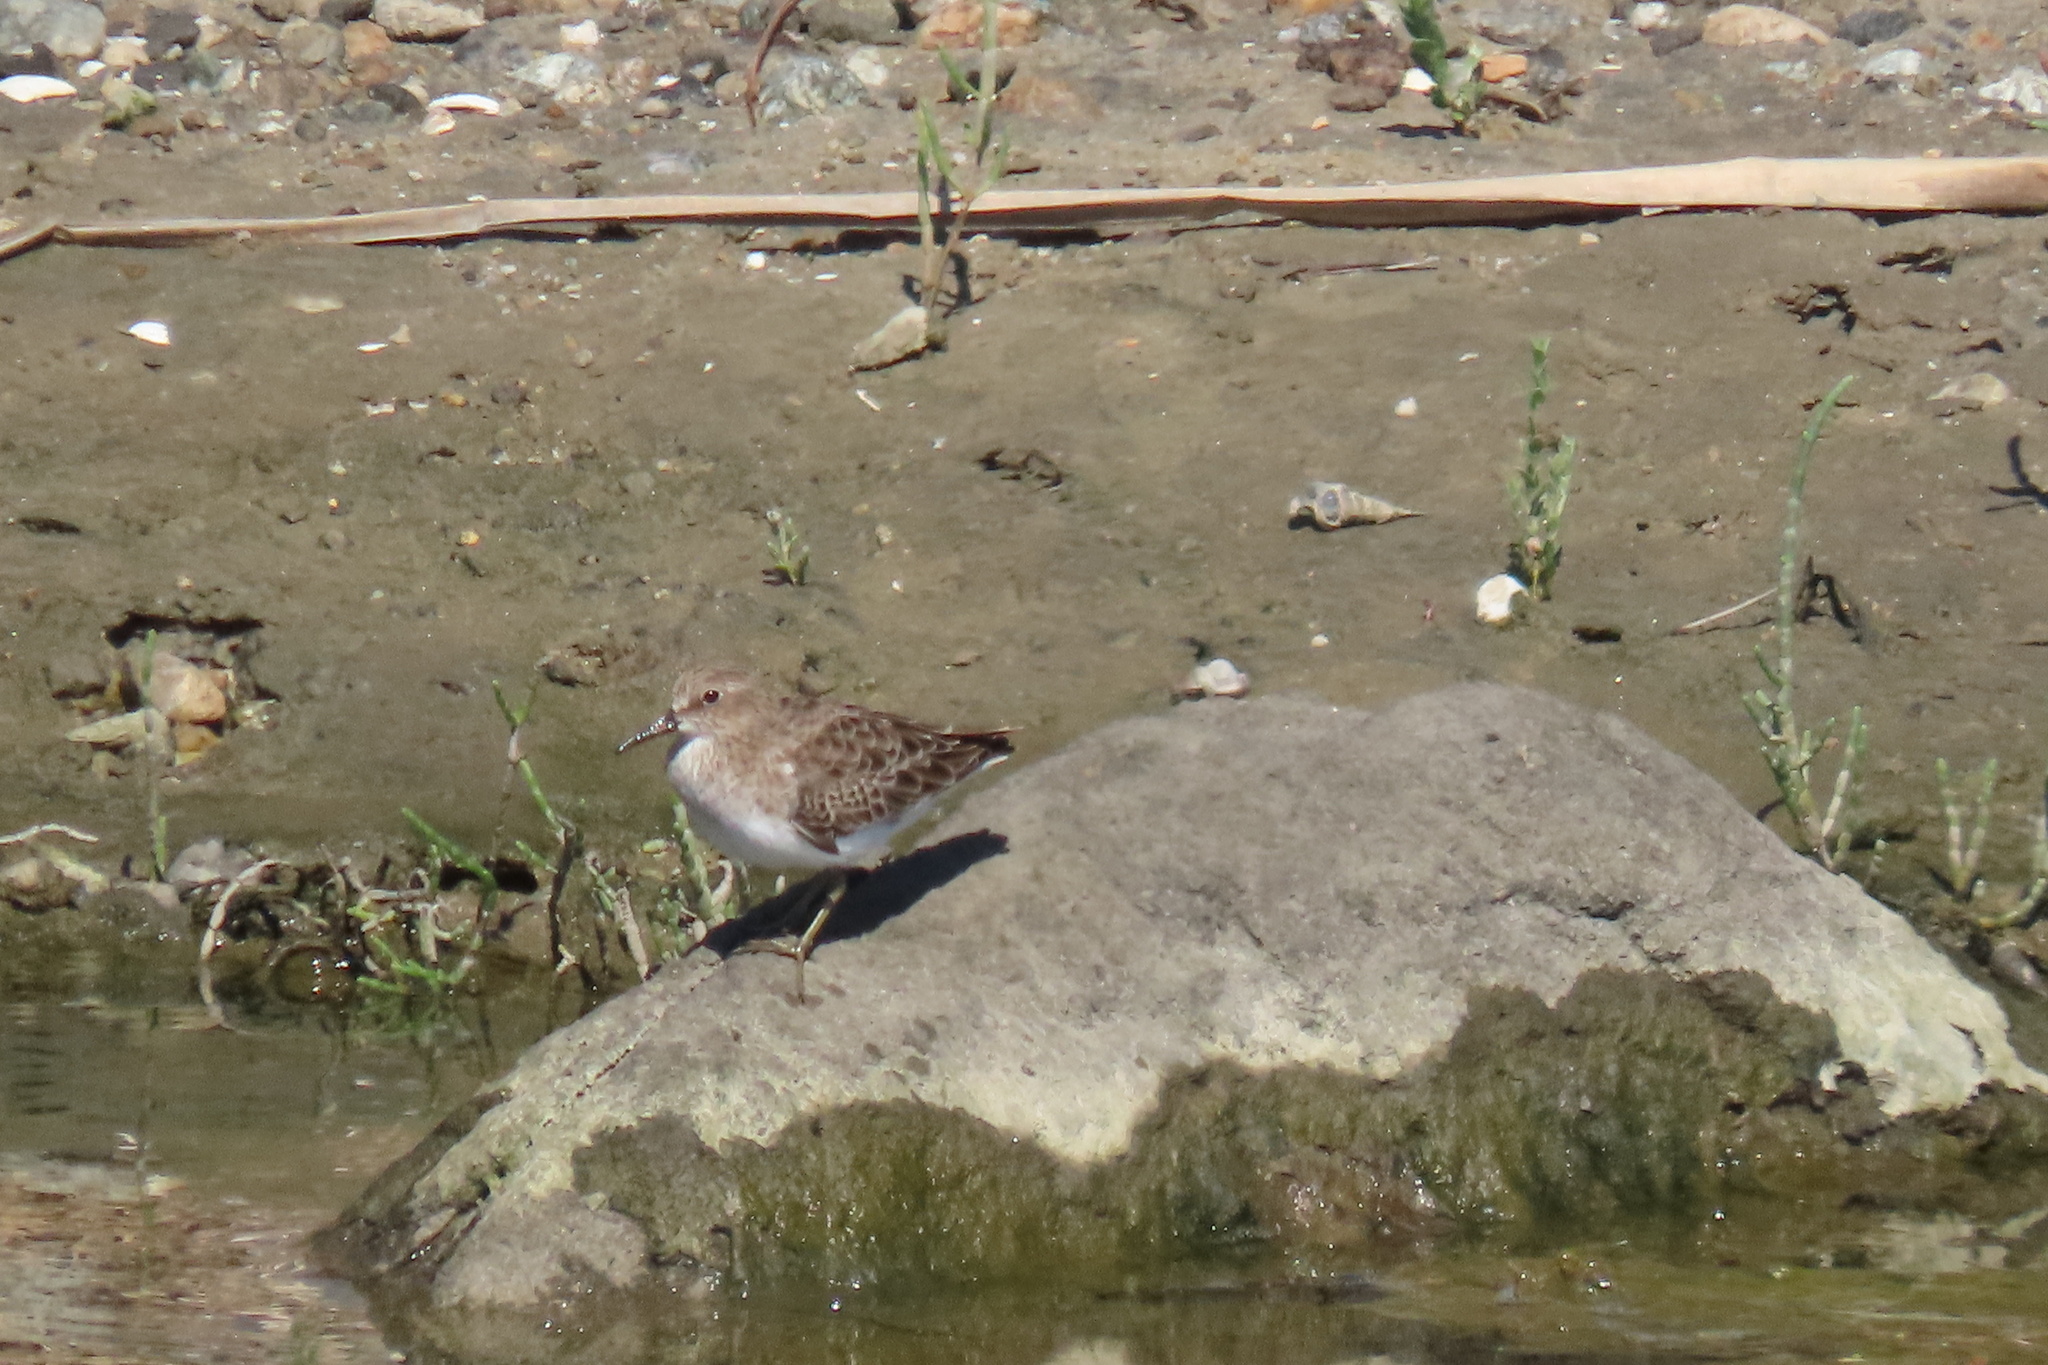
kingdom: Animalia
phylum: Chordata
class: Aves
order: Charadriiformes
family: Scolopacidae
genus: Calidris
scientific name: Calidris minutilla
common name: Least sandpiper
